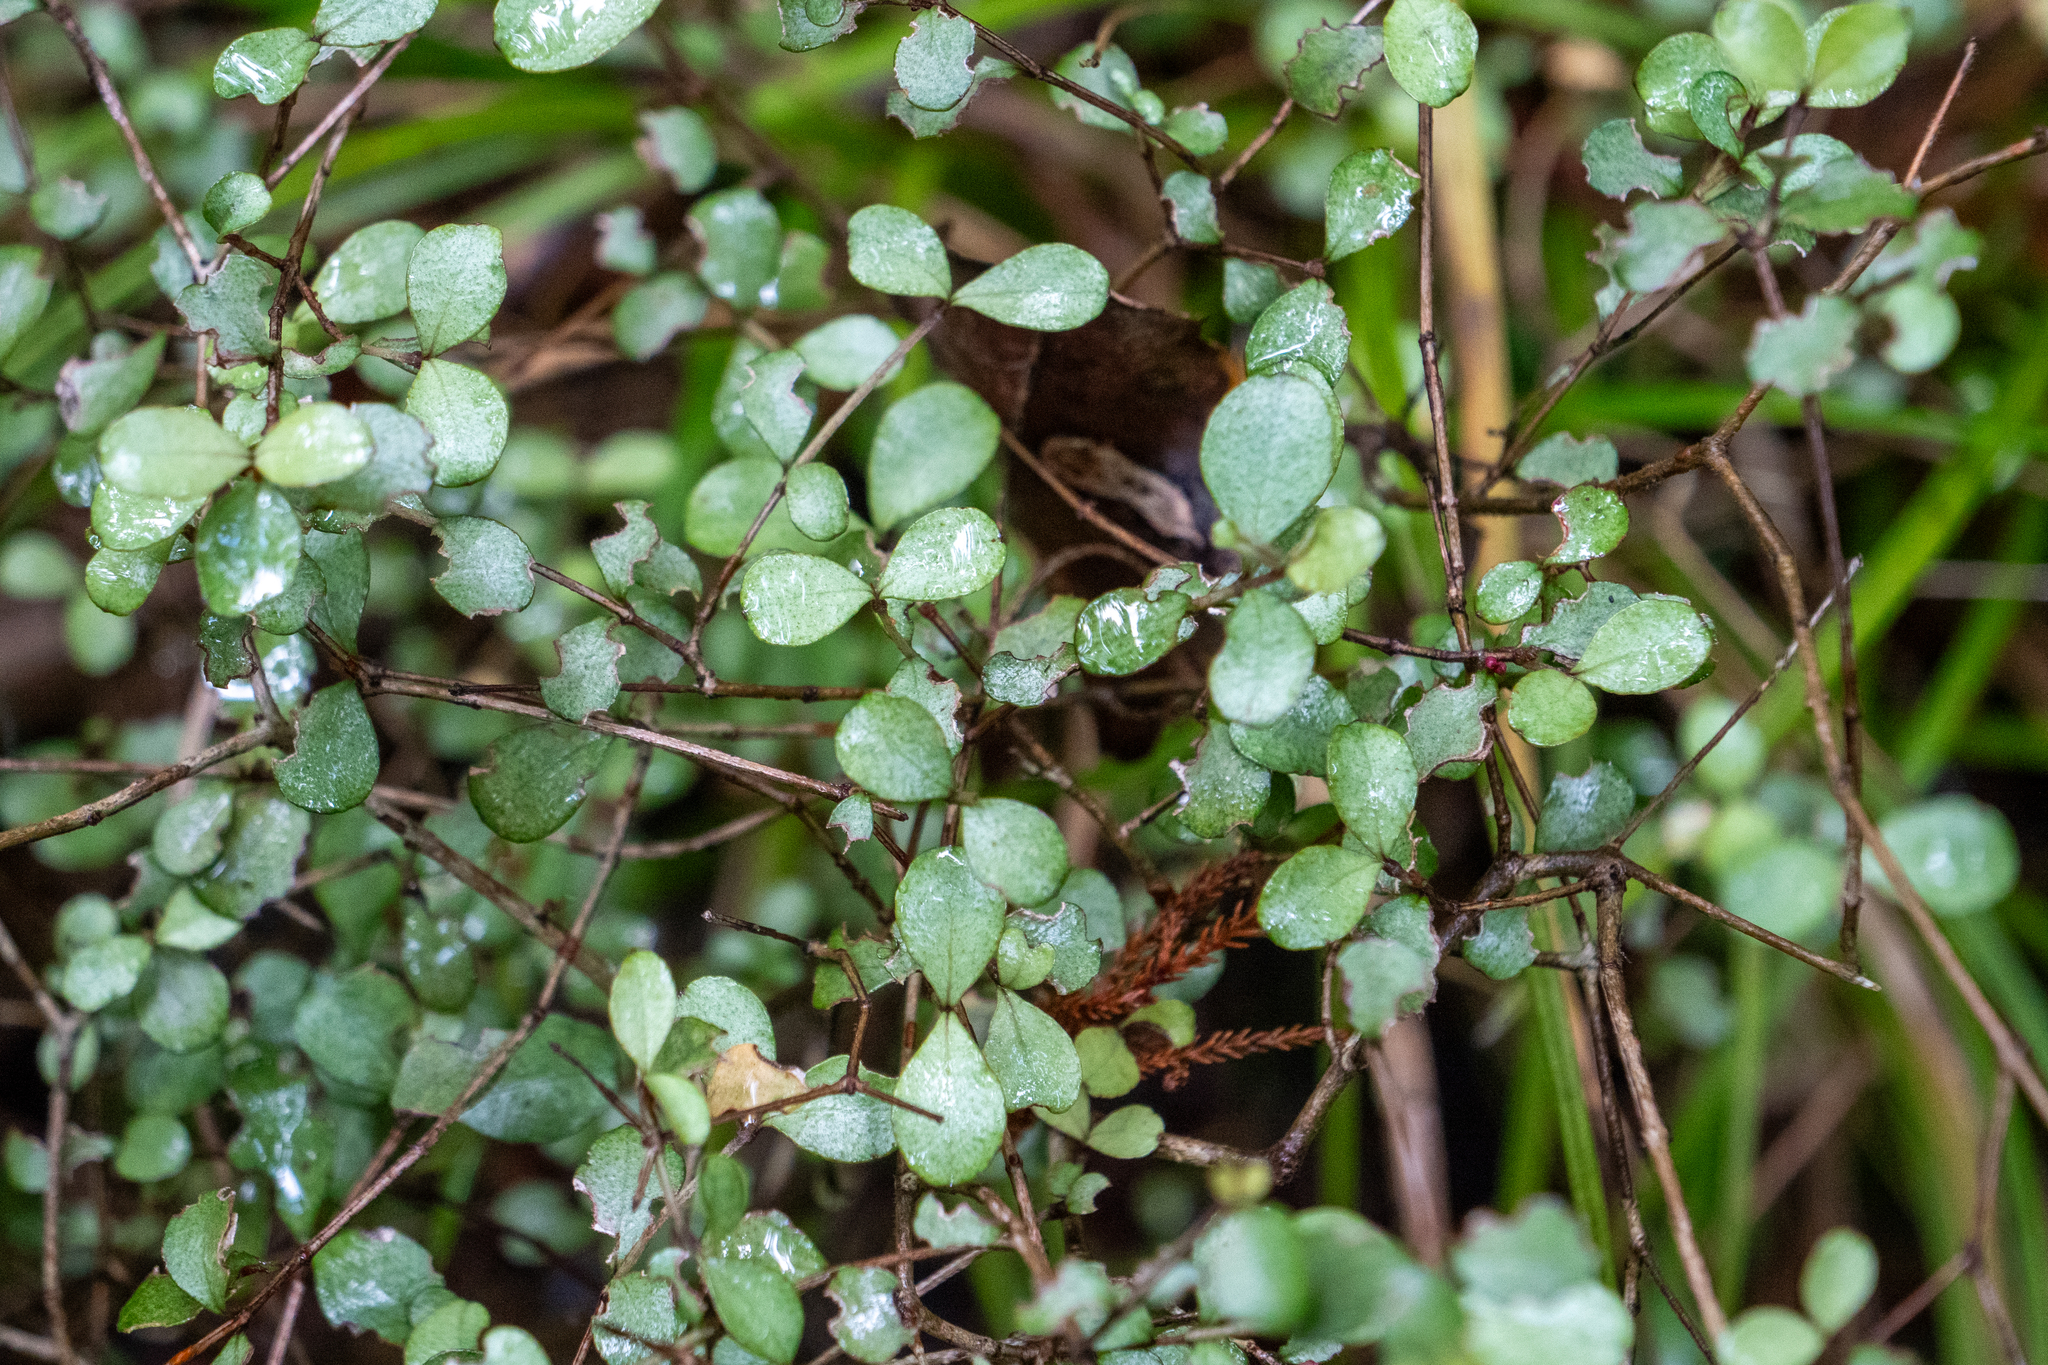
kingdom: Plantae
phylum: Tracheophyta
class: Magnoliopsida
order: Myrtales
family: Myrtaceae
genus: Neomyrtus
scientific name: Neomyrtus pedunculata
